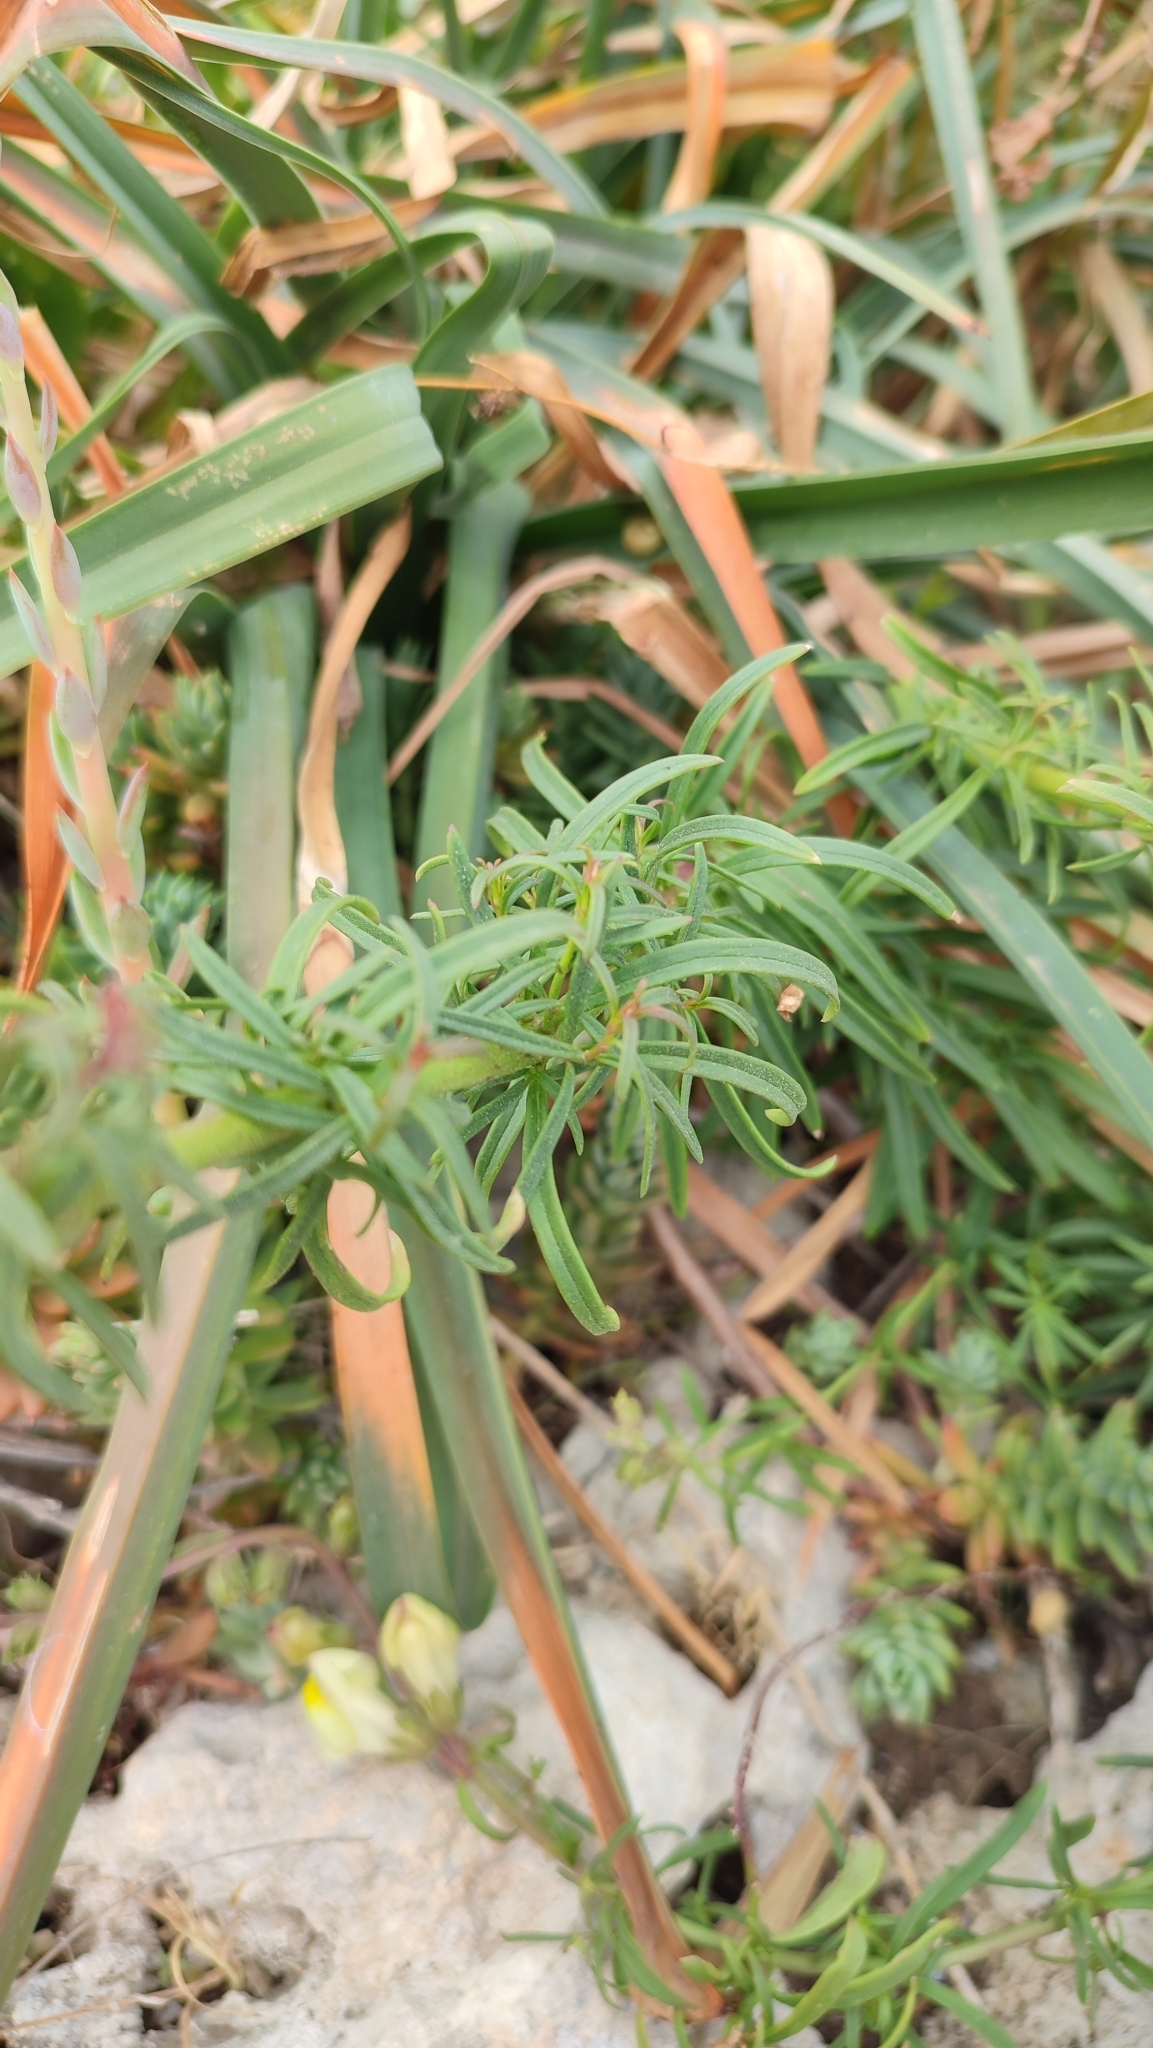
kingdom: Plantae
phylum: Tracheophyta
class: Magnoliopsida
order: Lamiales
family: Plantaginaceae
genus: Antirrhinum
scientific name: Antirrhinum siculum
